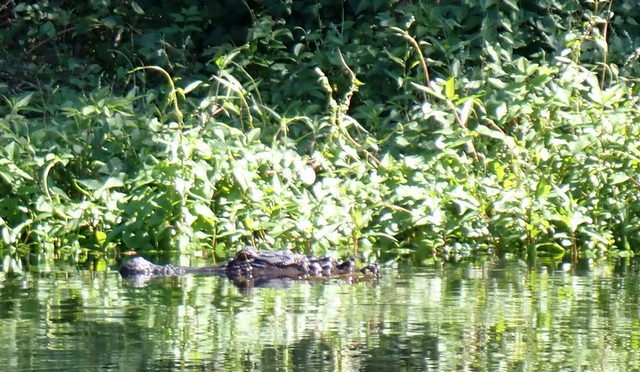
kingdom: Animalia
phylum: Chordata
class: Crocodylia
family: Alligatoridae
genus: Alligator
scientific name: Alligator mississippiensis
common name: American alligator
